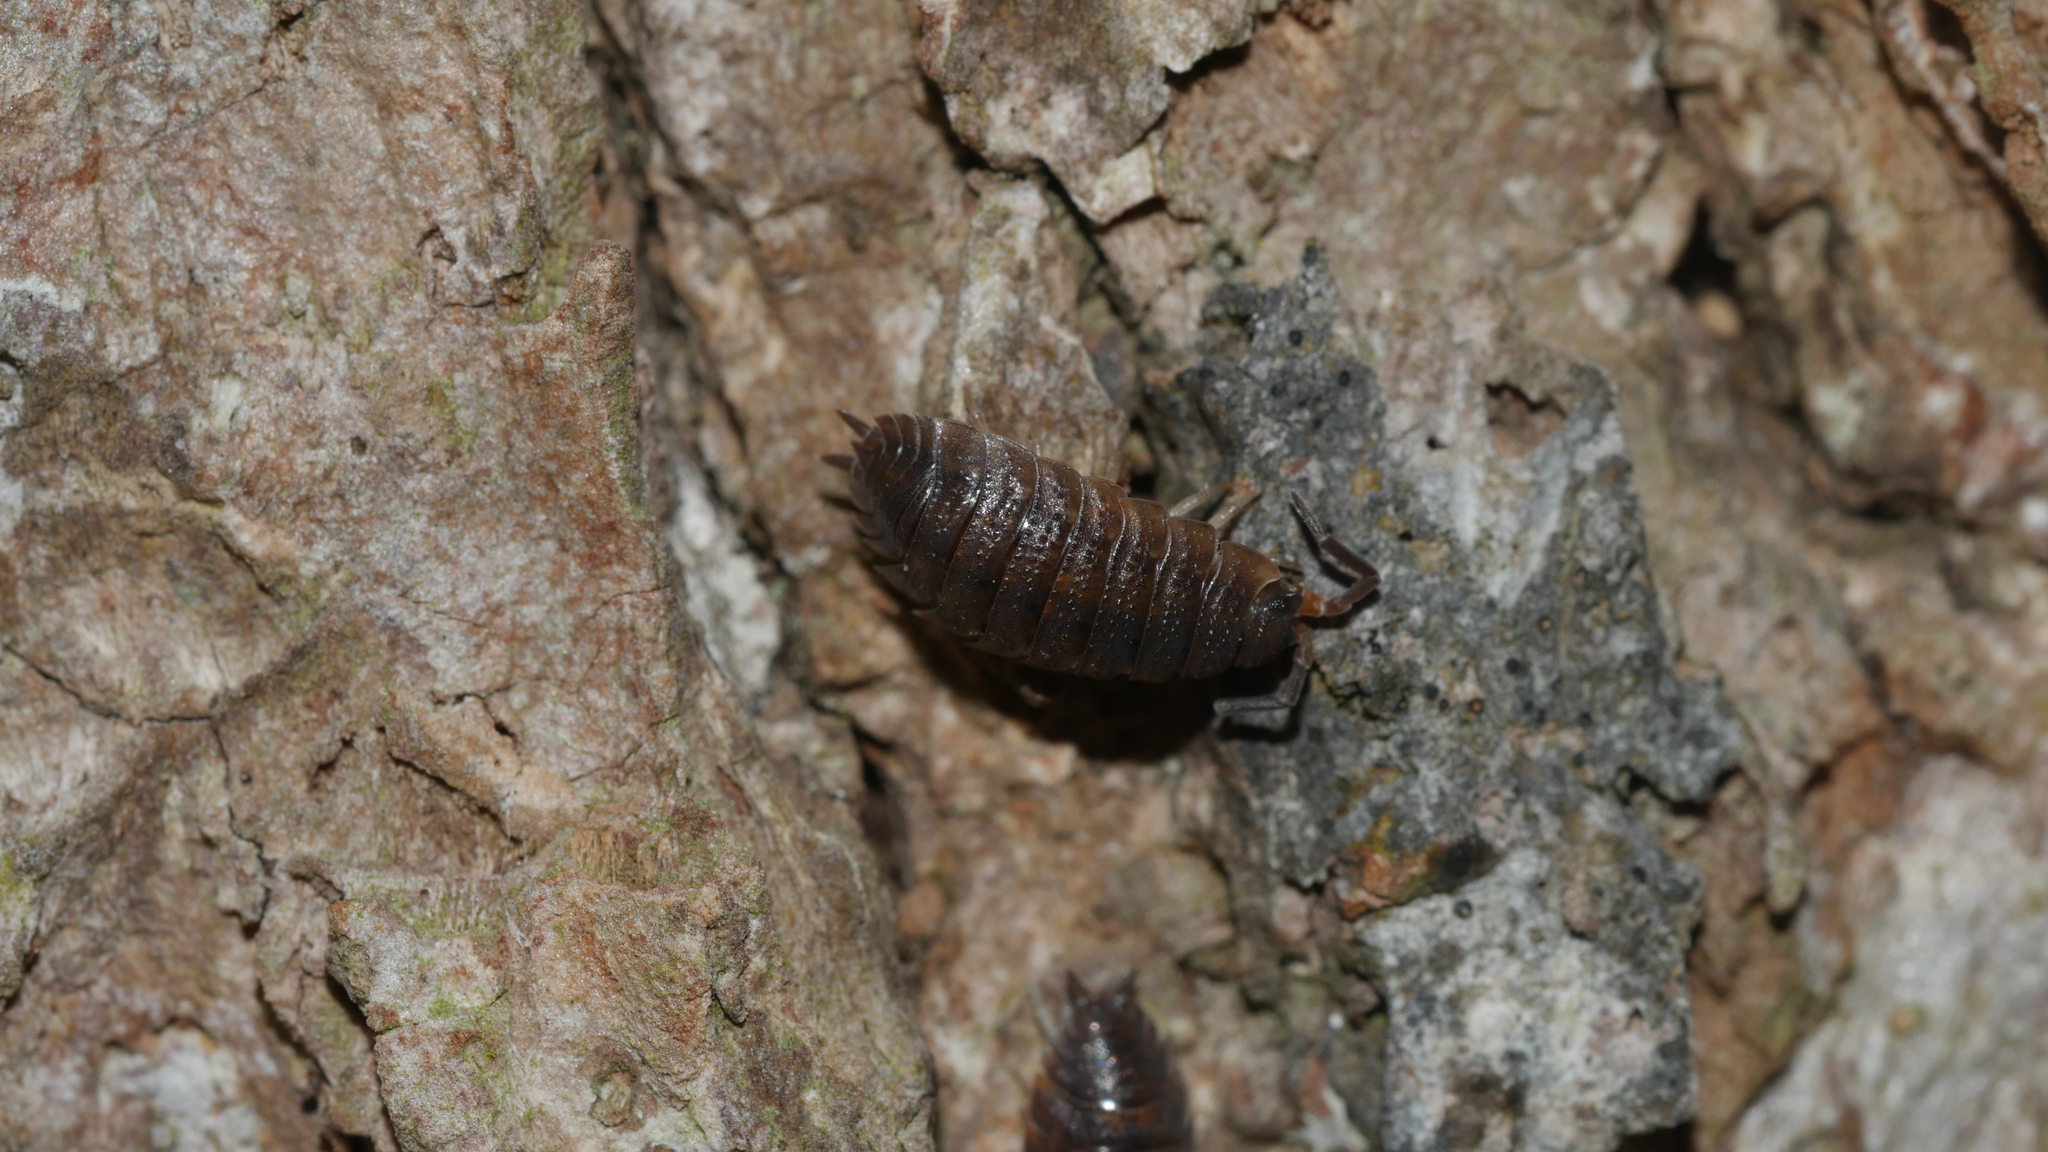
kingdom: Animalia
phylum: Arthropoda
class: Malacostraca
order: Isopoda
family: Porcellionidae
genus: Porcellio
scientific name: Porcellio scaber
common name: Common rough woodlouse
